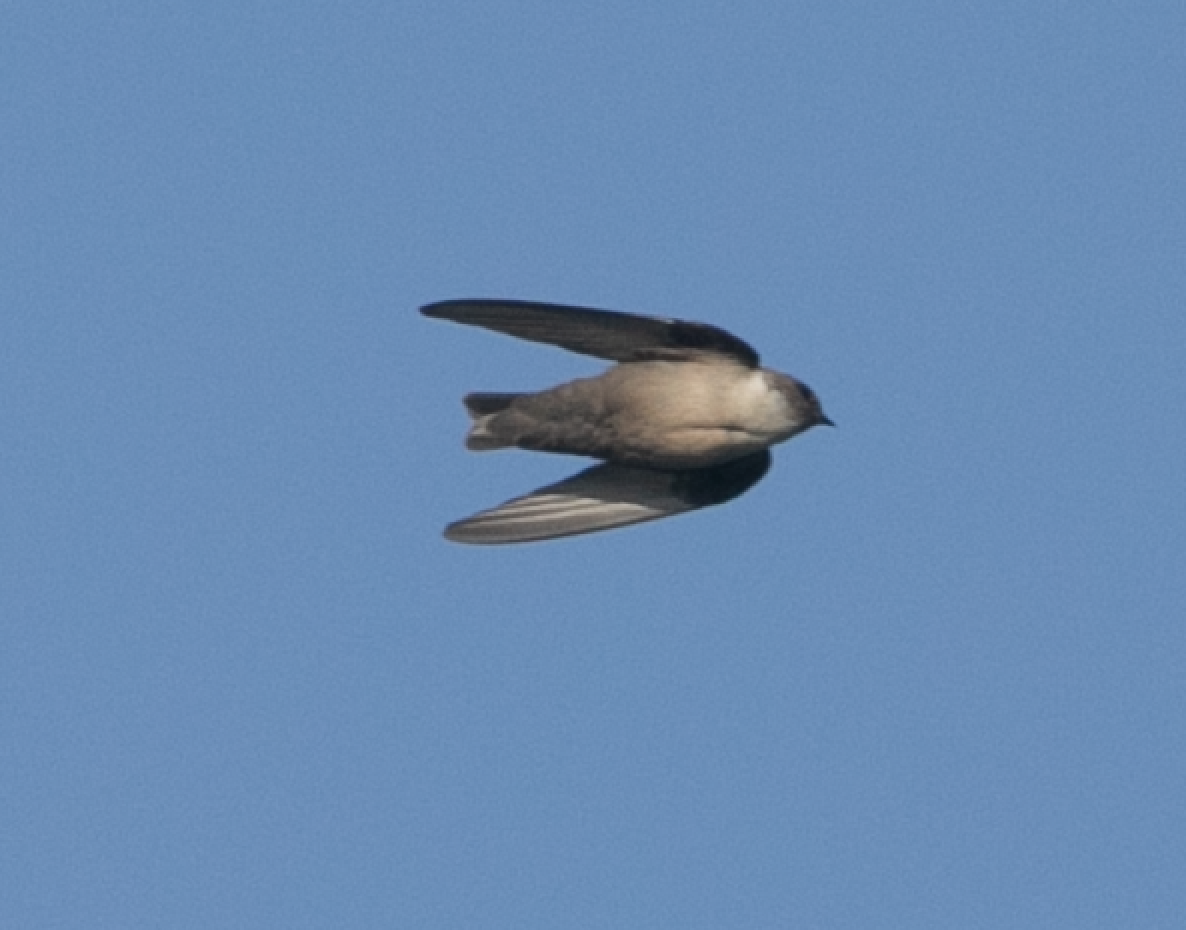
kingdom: Animalia
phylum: Chordata
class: Aves
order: Passeriformes
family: Hirundinidae
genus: Ptyonoprogne
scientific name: Ptyonoprogne rupestris
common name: Eurasian crag martin
